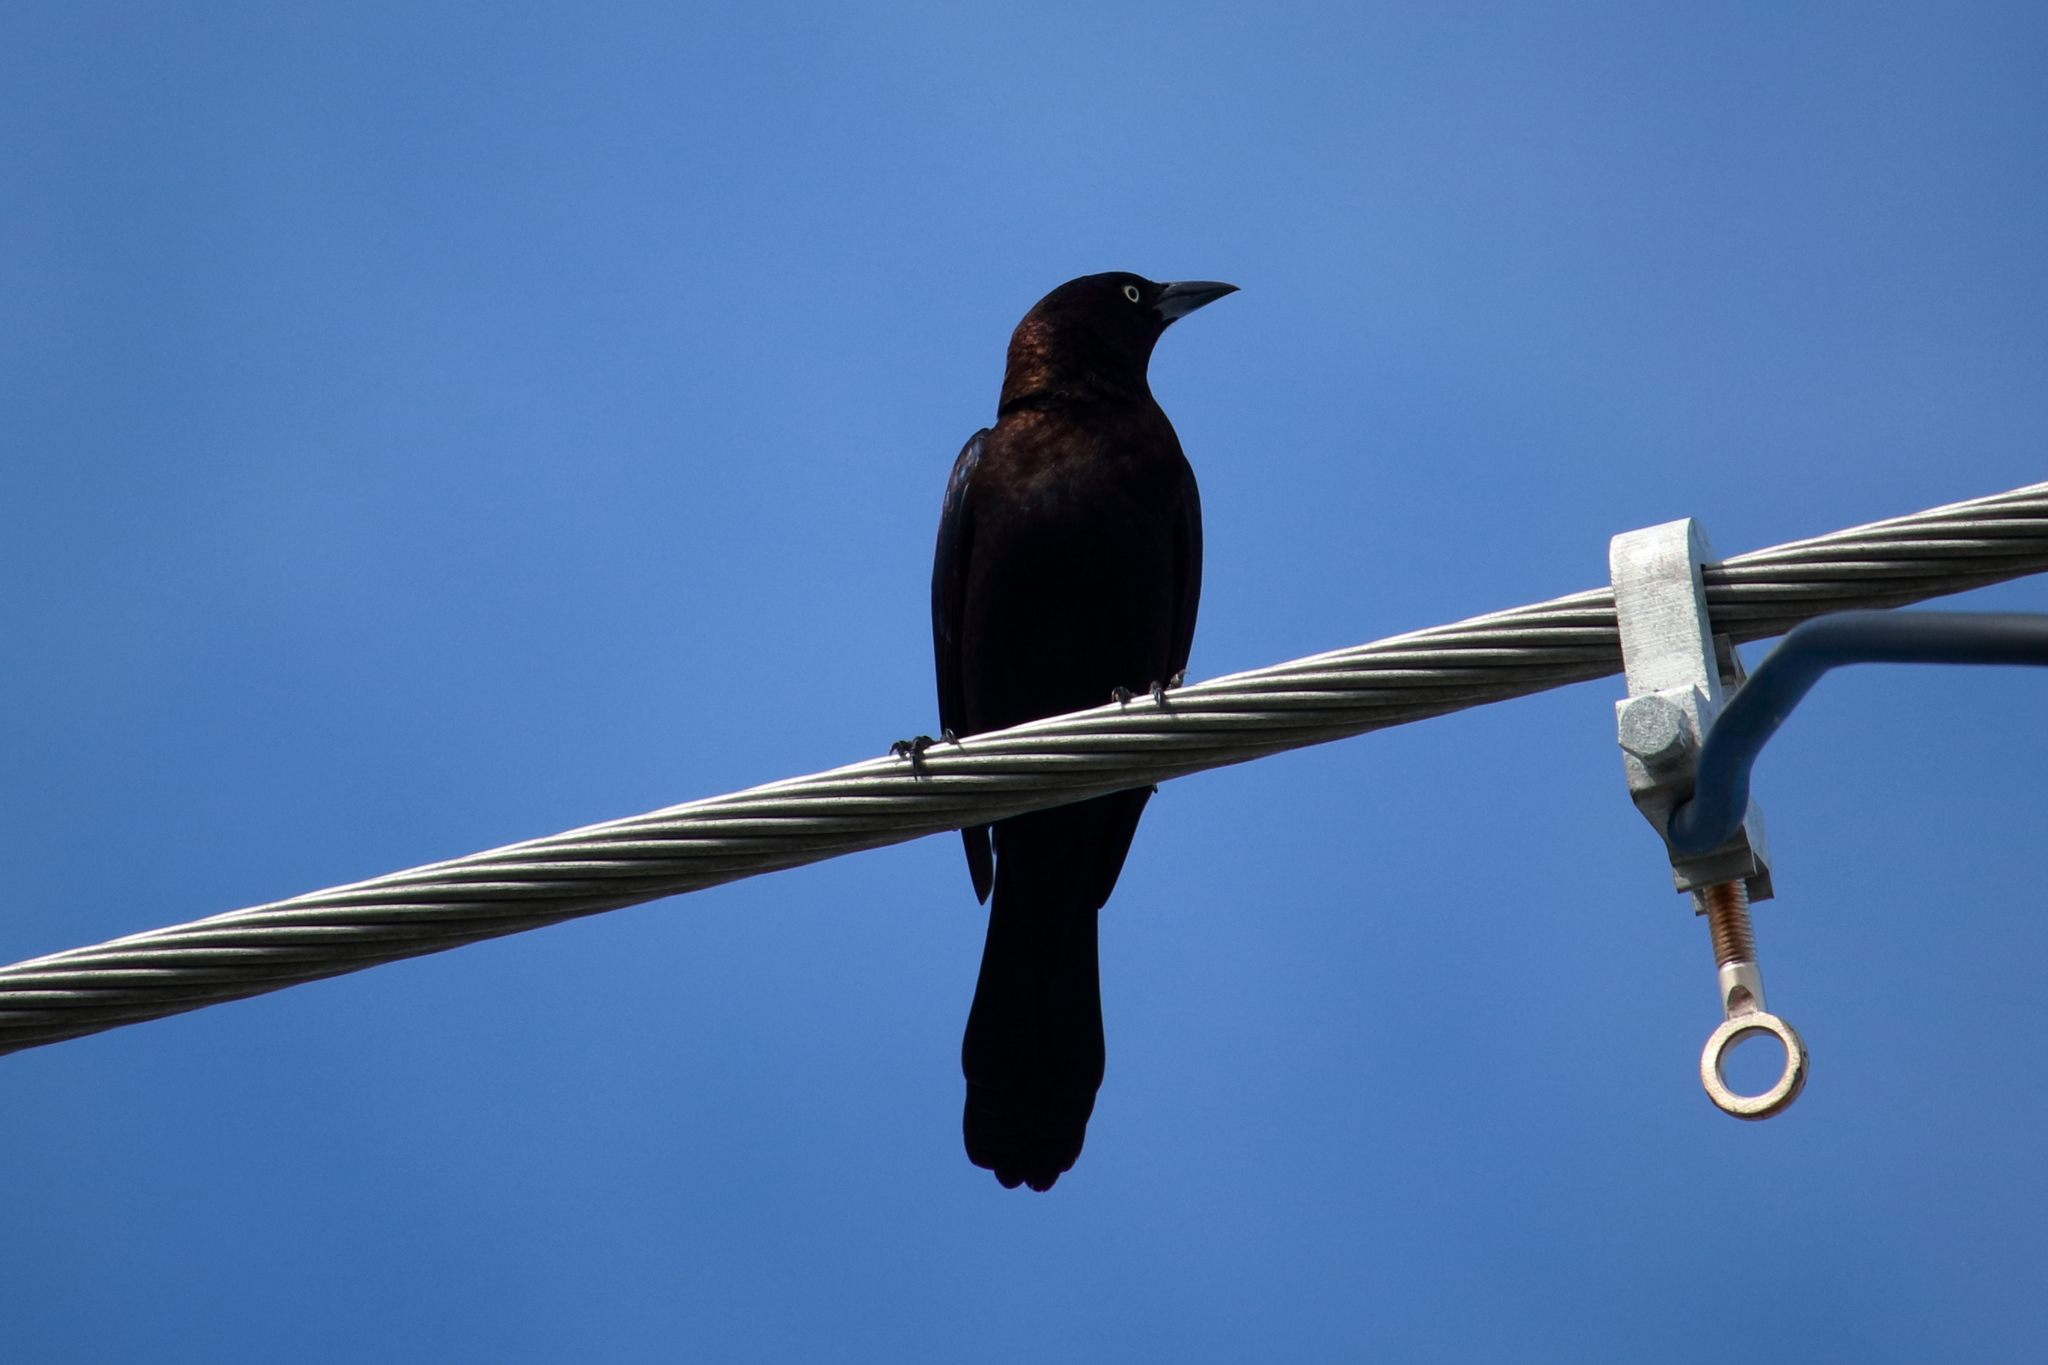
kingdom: Animalia
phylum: Chordata
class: Aves
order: Passeriformes
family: Icteridae
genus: Quiscalus
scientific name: Quiscalus quiscula
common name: Common grackle
